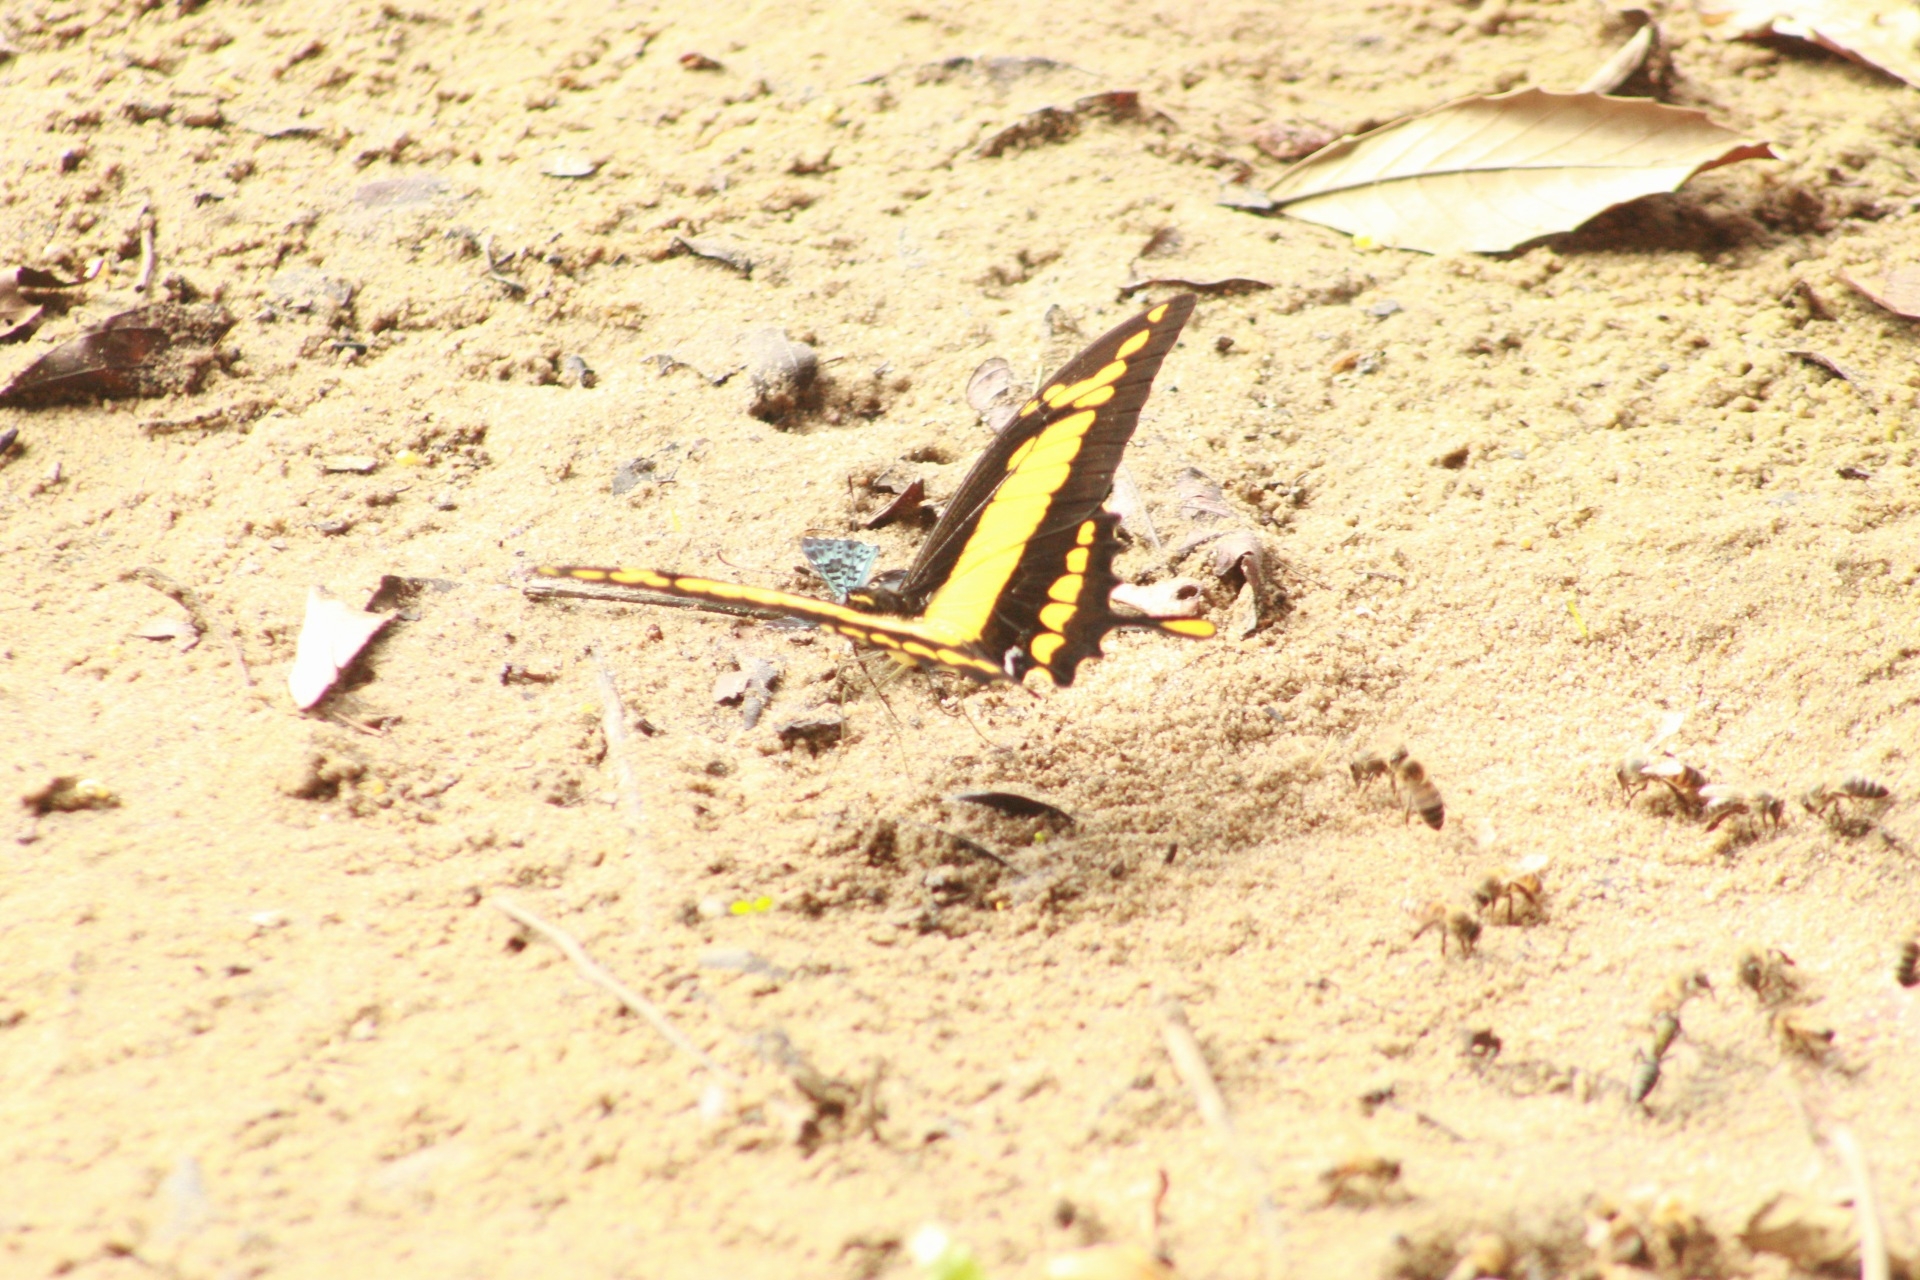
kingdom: Animalia
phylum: Arthropoda
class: Insecta
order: Lepidoptera
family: Papilionidae
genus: Papilio
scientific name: Papilio thoas
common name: King swallowtail
